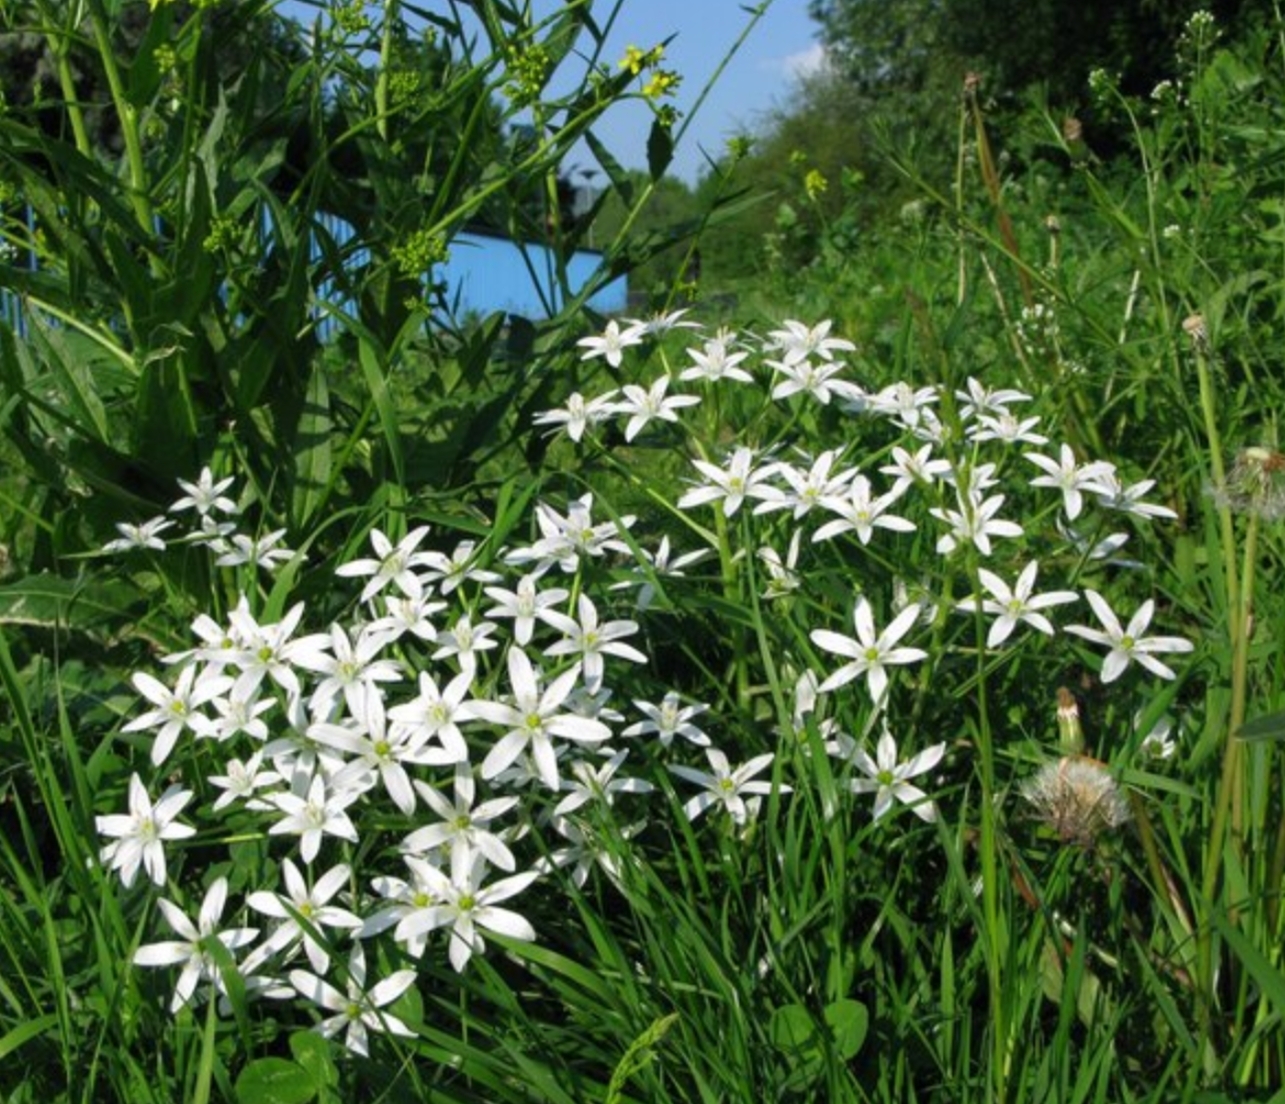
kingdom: Plantae
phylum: Tracheophyta
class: Liliopsida
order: Asparagales
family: Asparagaceae
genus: Ornithogalum
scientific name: Ornithogalum umbellatum
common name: Garden star-of-bethlehem
